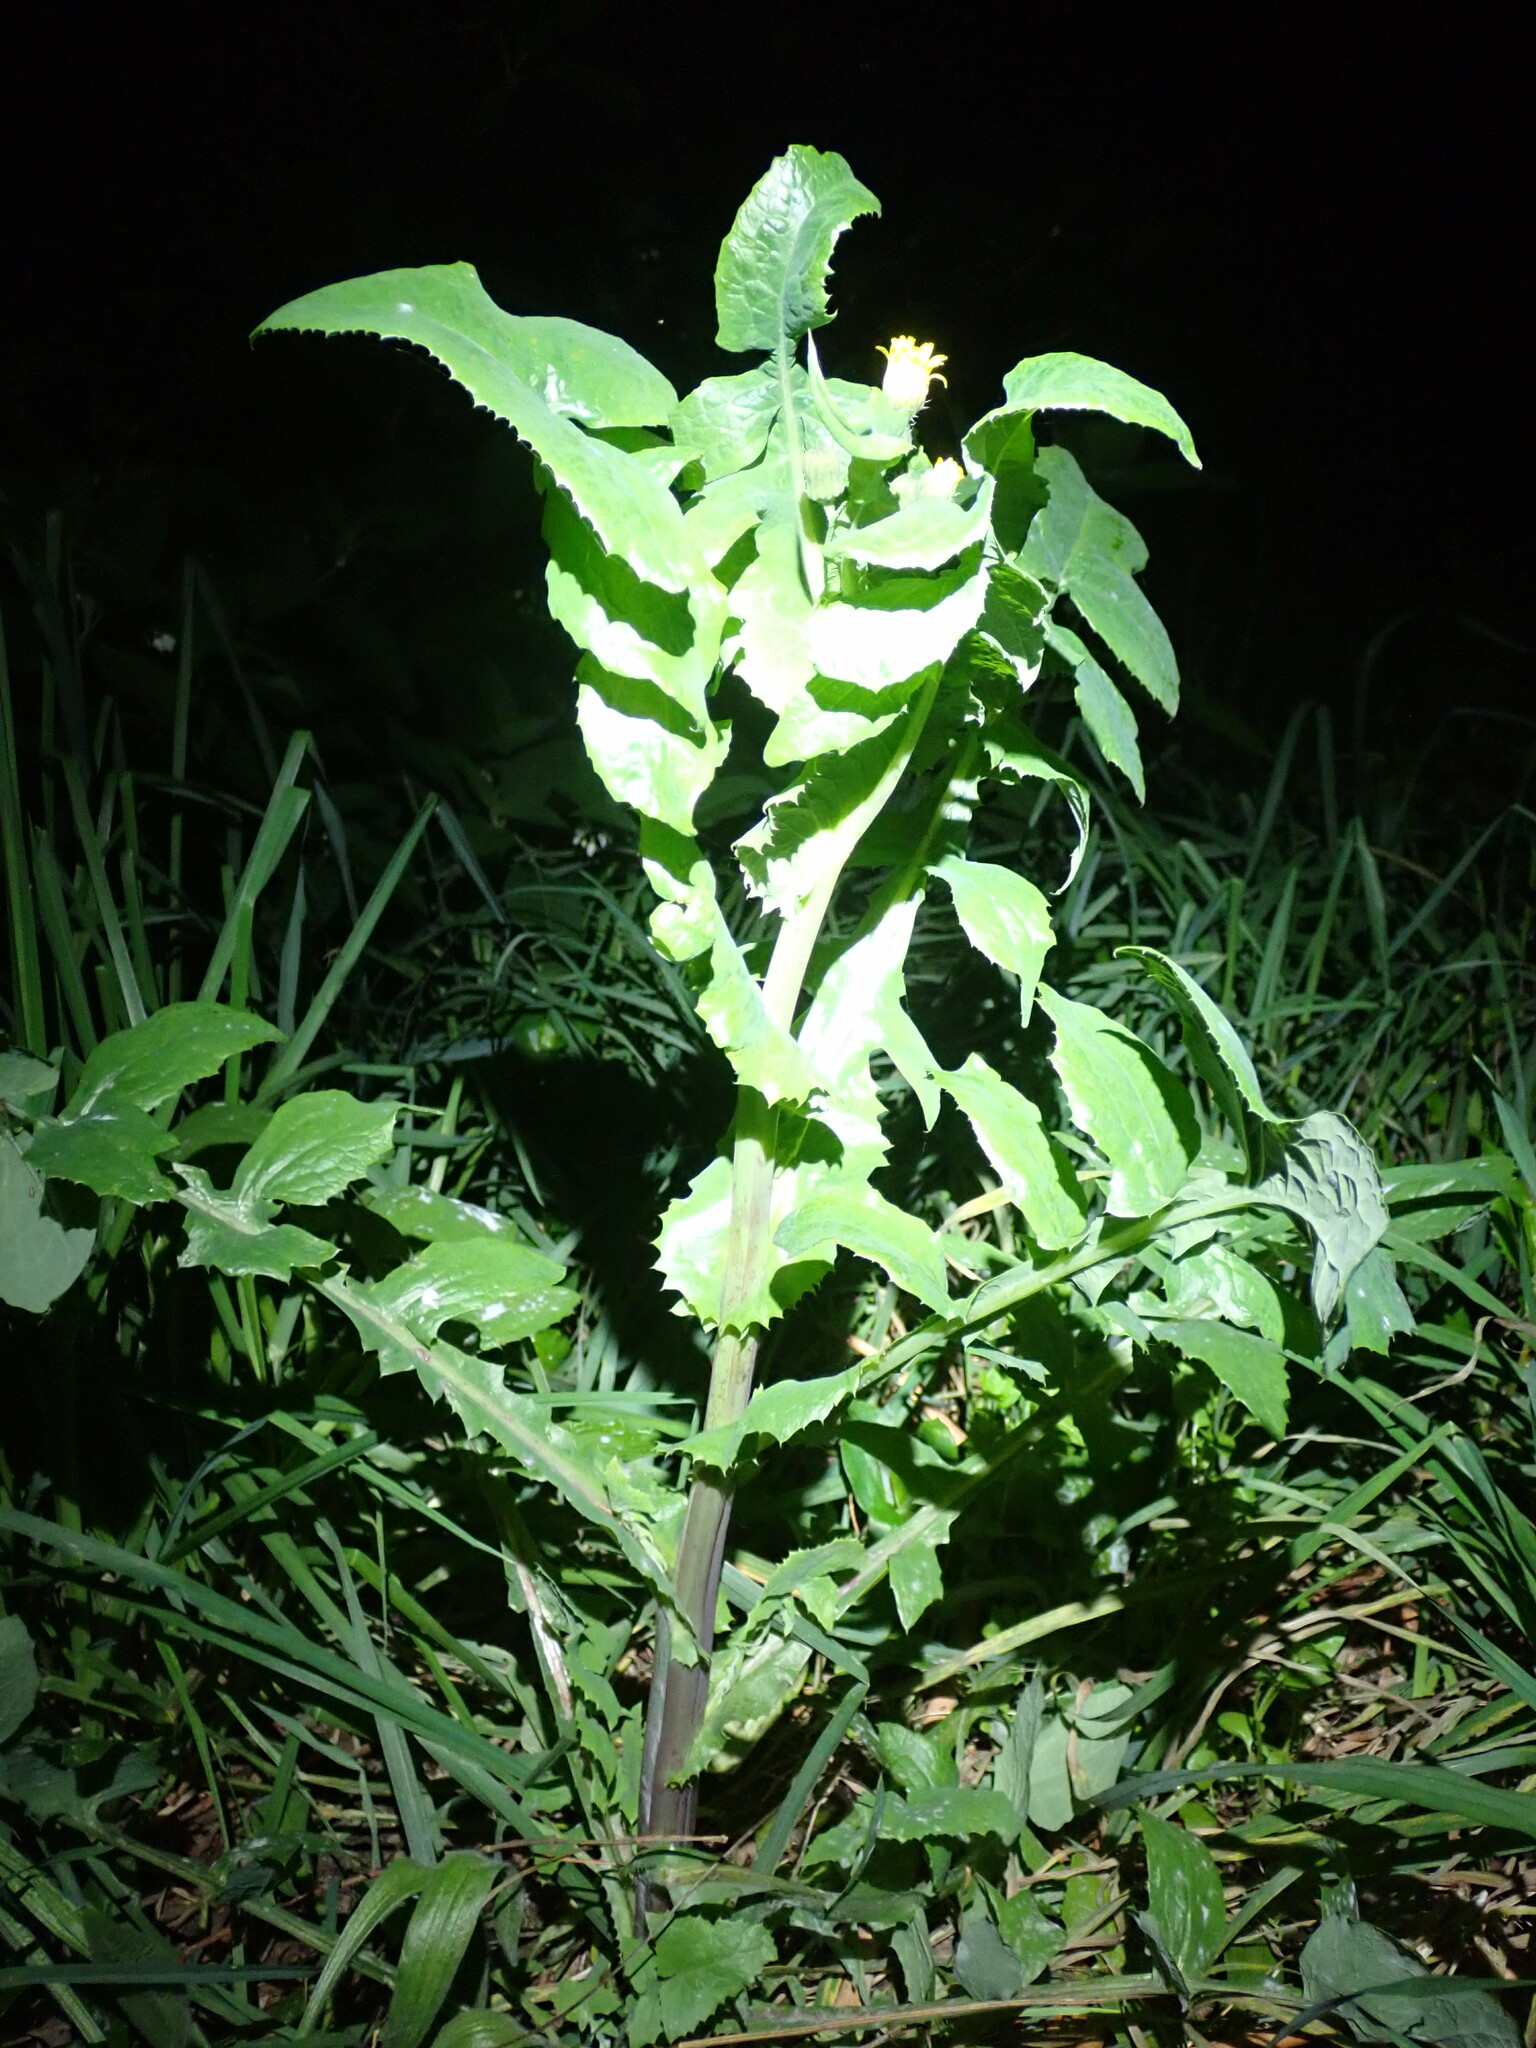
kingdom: Plantae
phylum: Tracheophyta
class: Magnoliopsida
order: Asterales
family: Asteraceae
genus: Sonchus
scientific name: Sonchus oleraceus
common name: Common sowthistle
